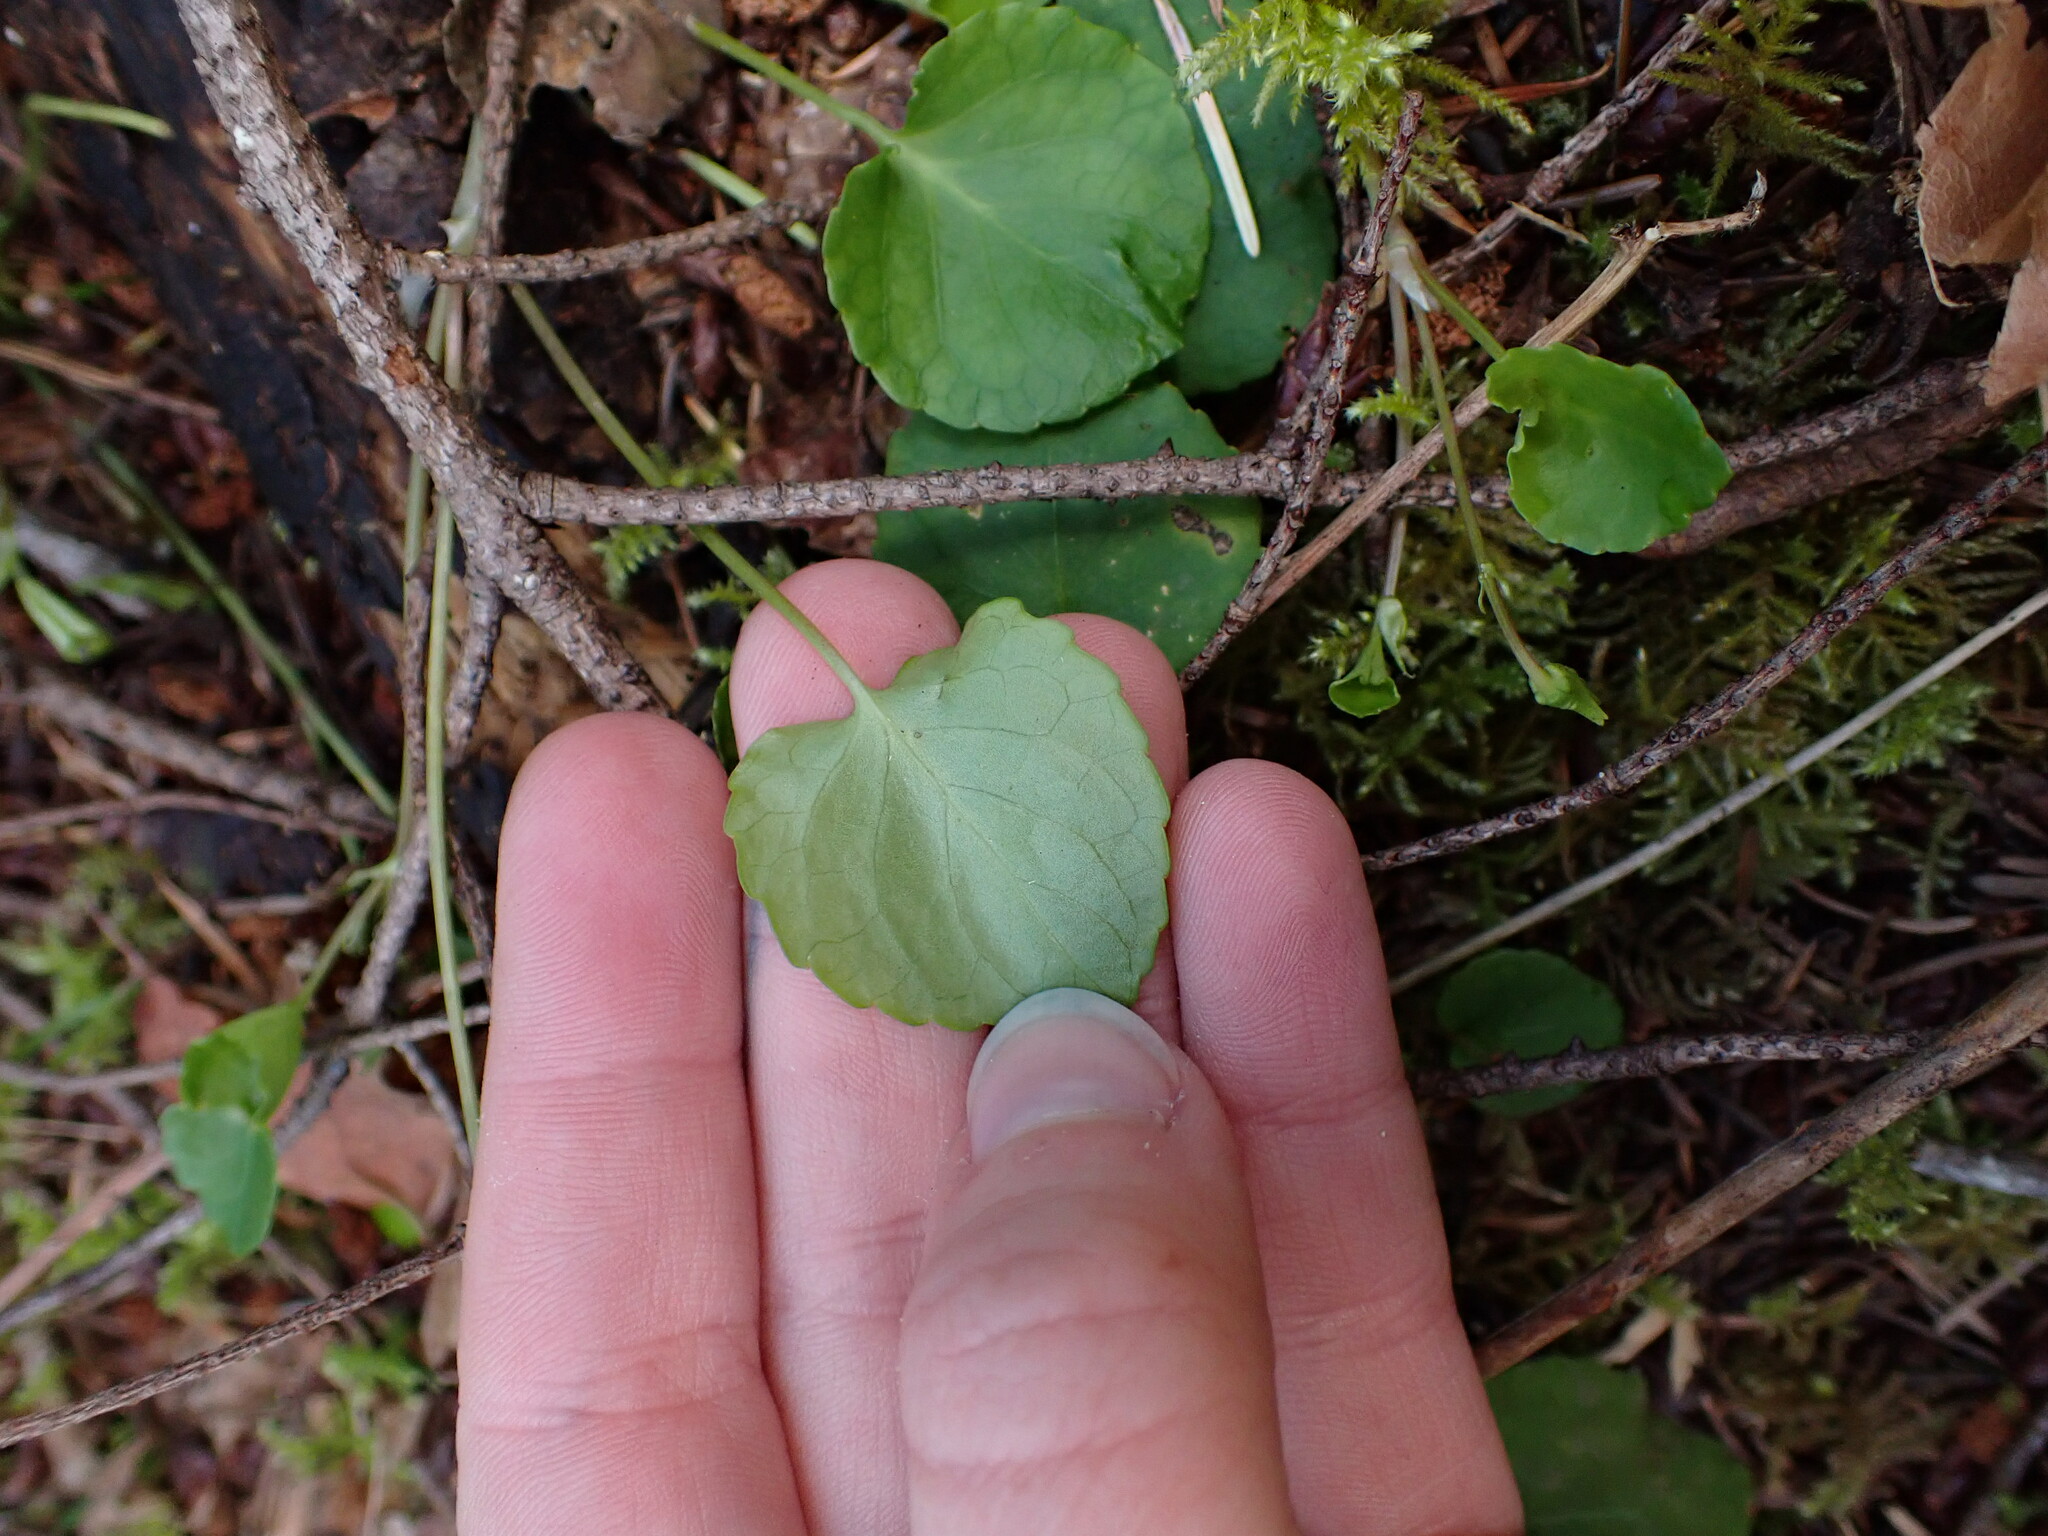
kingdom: Plantae
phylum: Tracheophyta
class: Magnoliopsida
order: Malpighiales
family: Violaceae
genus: Viola
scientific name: Viola sempervirens
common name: Evergreen violet
